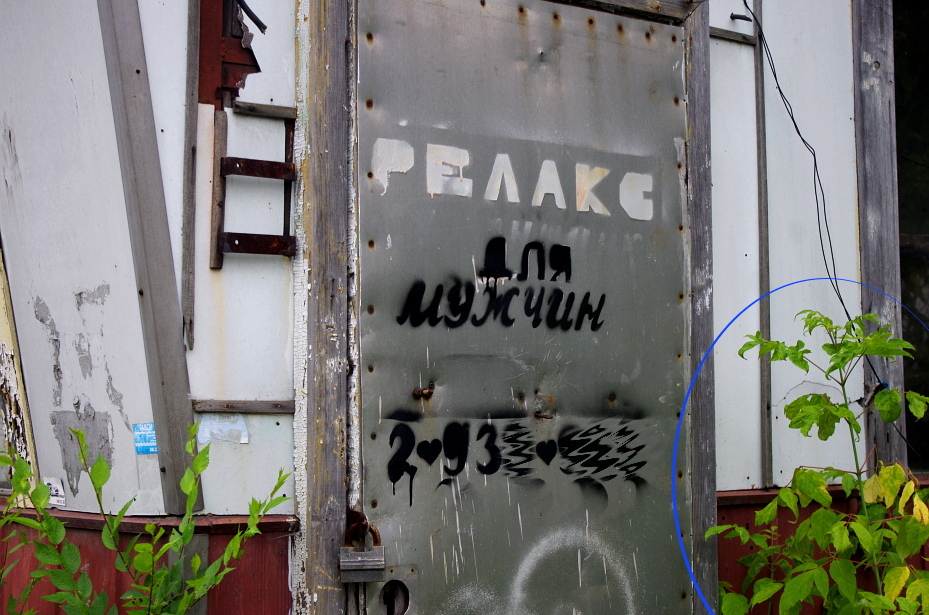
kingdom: Plantae
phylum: Tracheophyta
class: Magnoliopsida
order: Sapindales
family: Sapindaceae
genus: Acer
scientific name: Acer negundo
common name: Ashleaf maple
